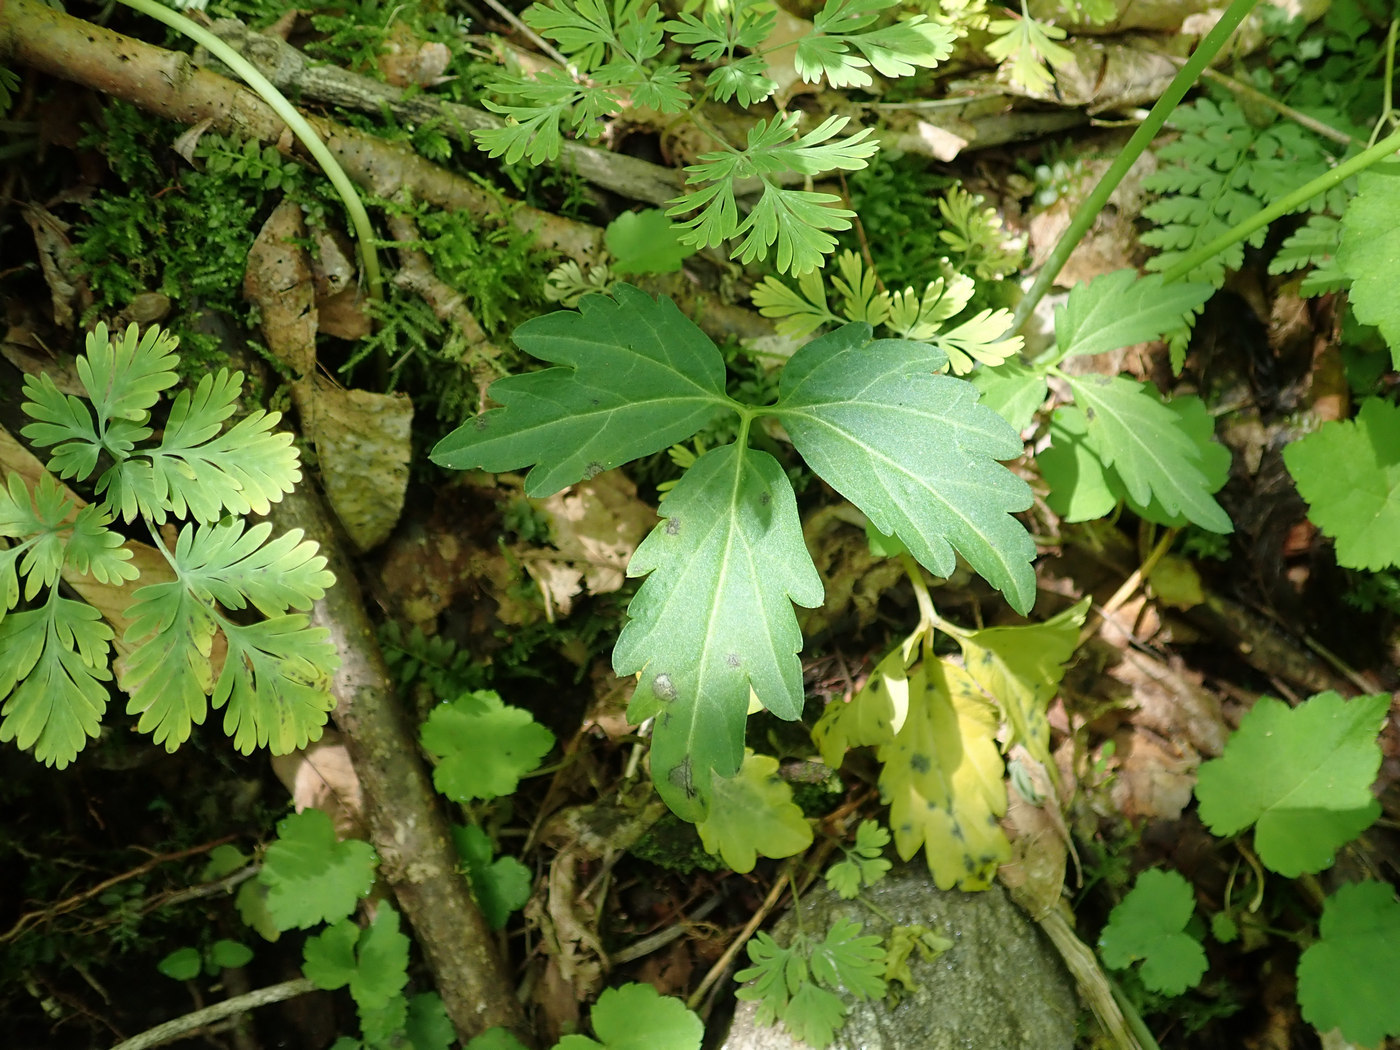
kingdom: Plantae
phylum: Tracheophyta
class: Magnoliopsida
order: Brassicales
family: Brassicaceae
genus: Cardamine
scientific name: Cardamine angustata
